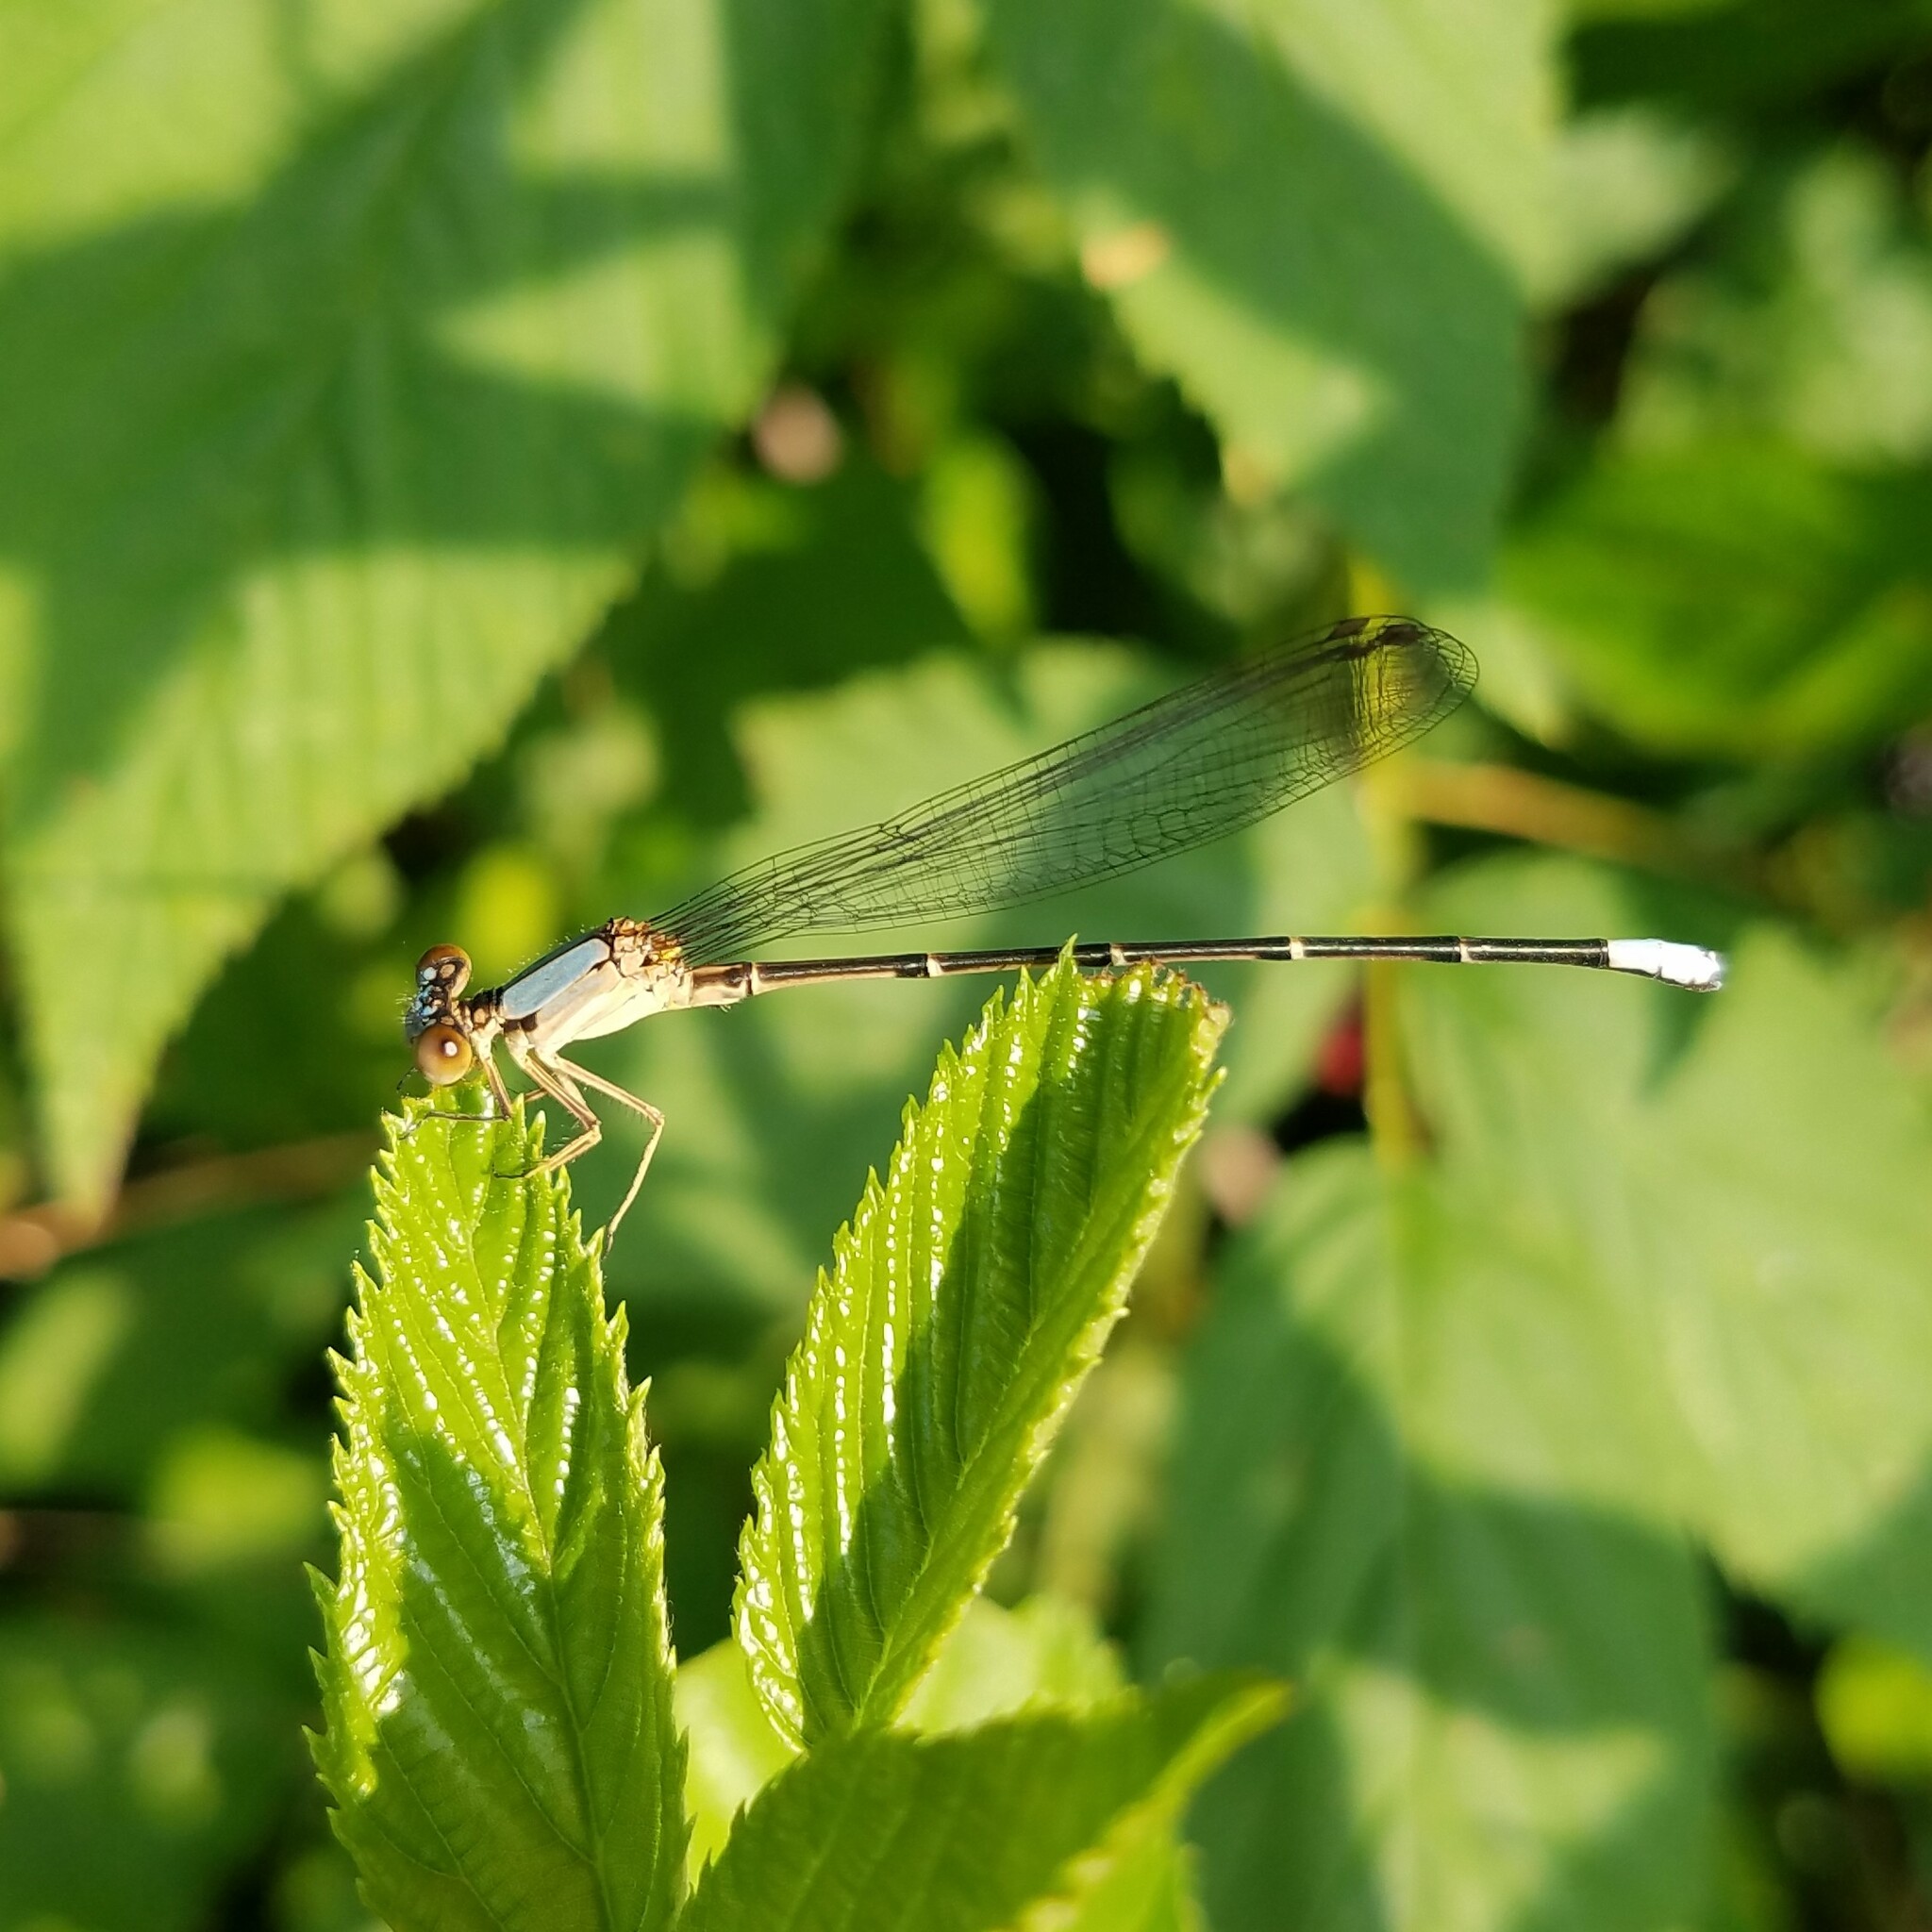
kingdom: Animalia
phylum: Arthropoda
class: Insecta
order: Odonata
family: Coenagrionidae
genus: Argia
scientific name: Argia apicalis
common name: Blue-fronted dancer
